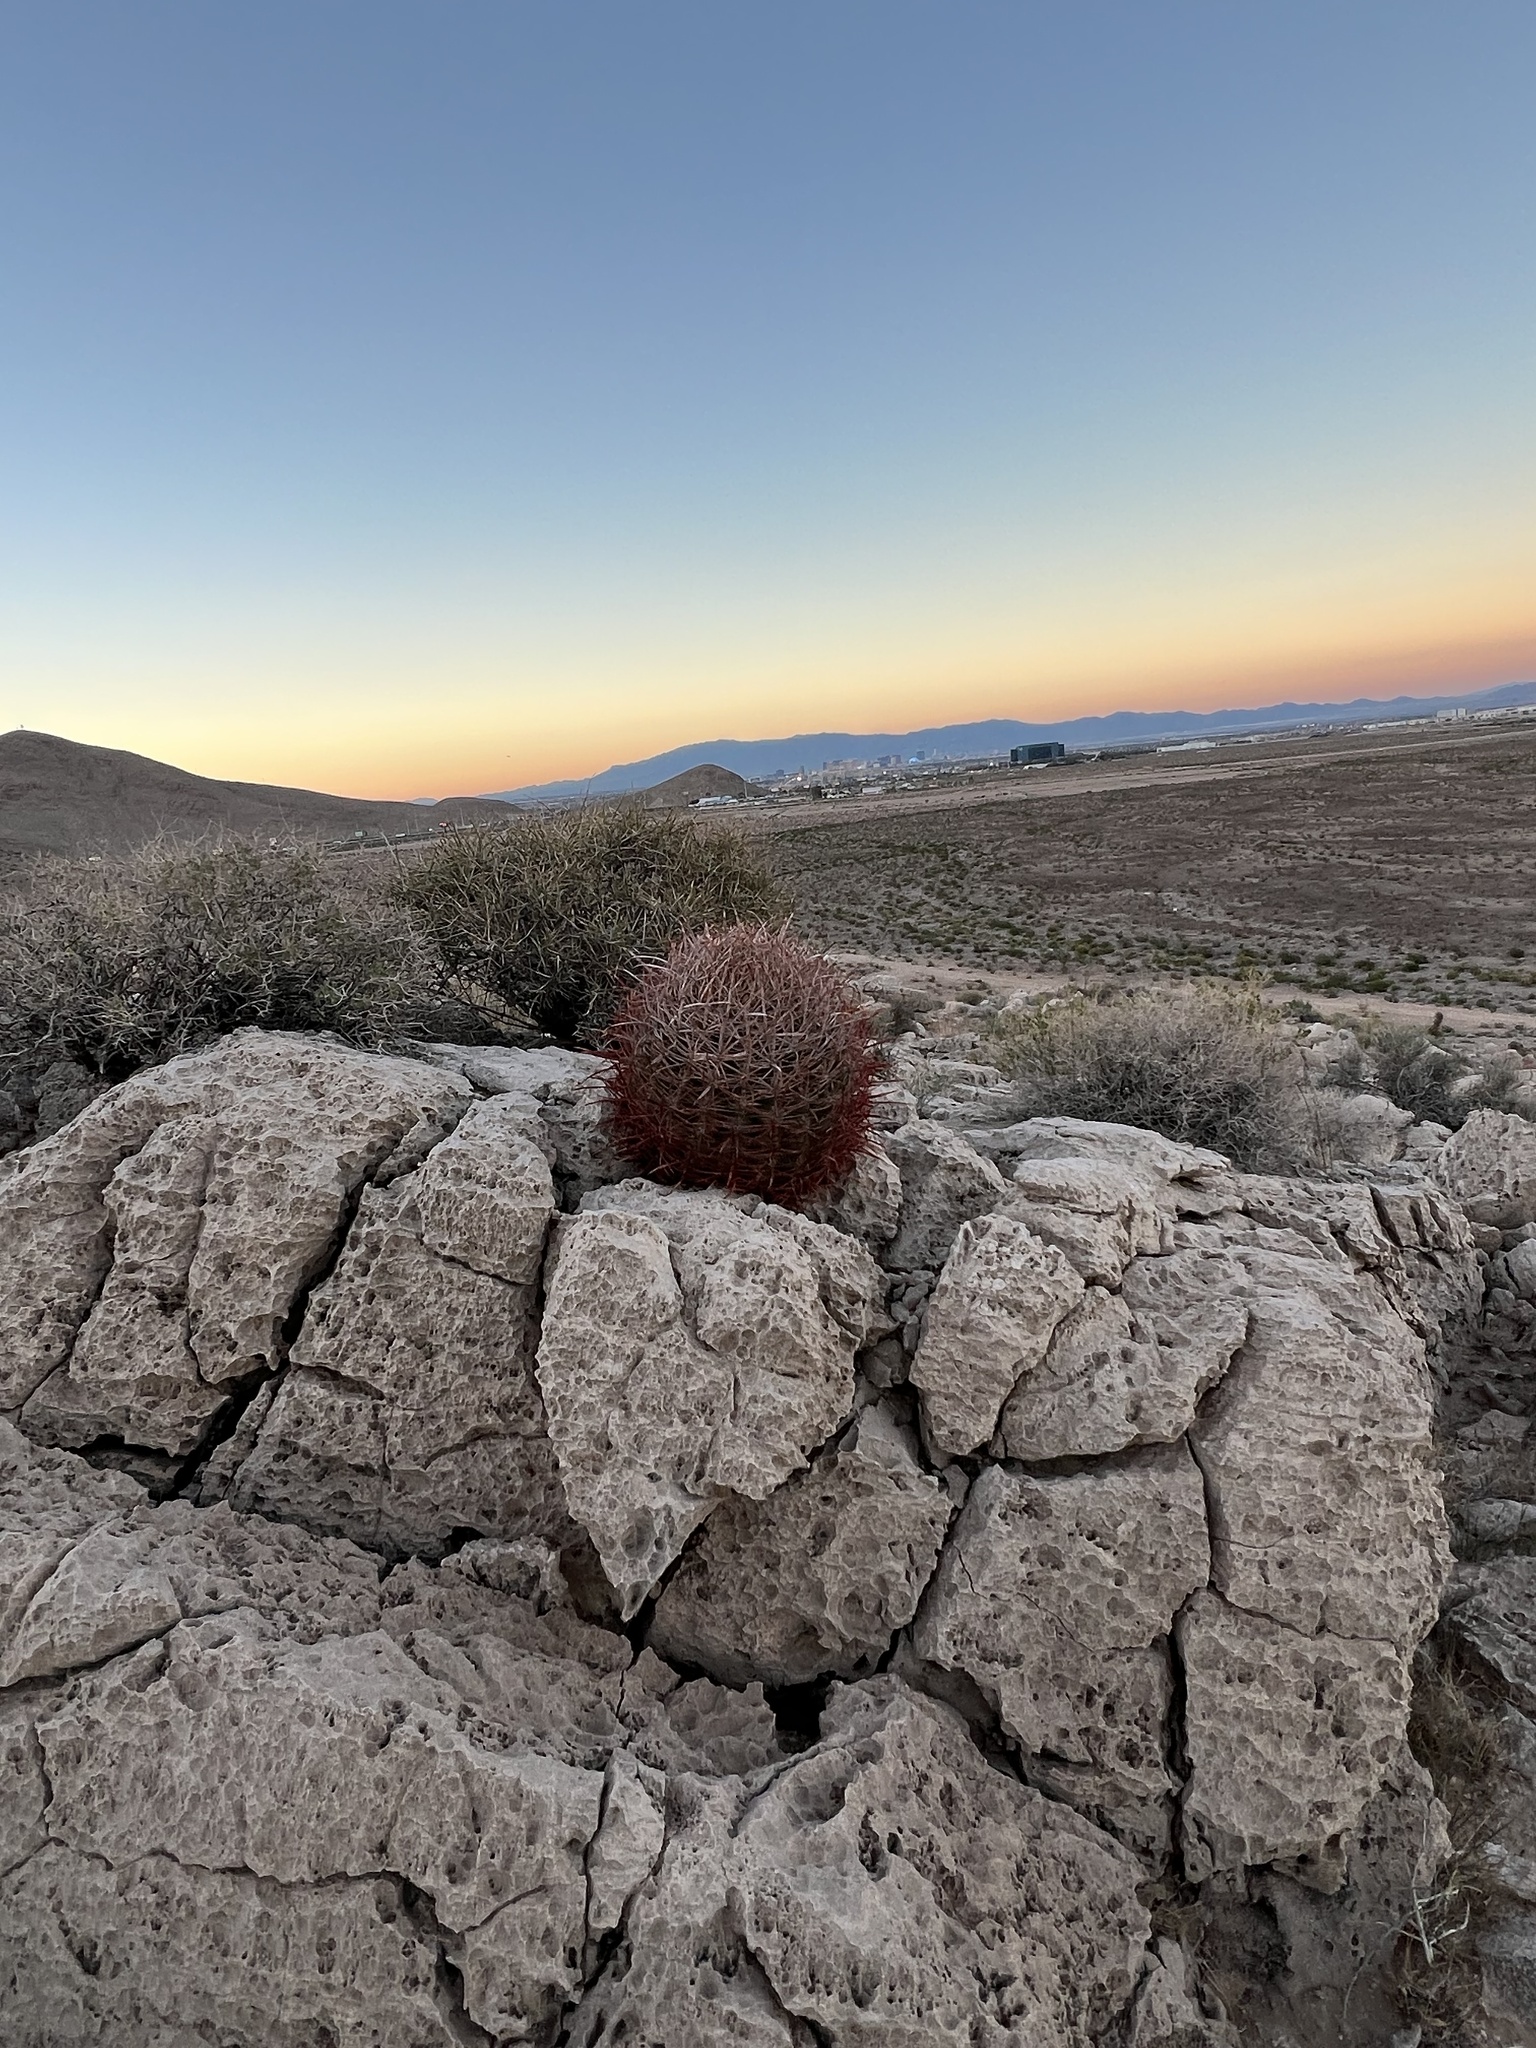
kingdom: Plantae
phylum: Tracheophyta
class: Magnoliopsida
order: Caryophyllales
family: Cactaceae
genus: Ferocactus
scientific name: Ferocactus cylindraceus
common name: California barrel cactus
